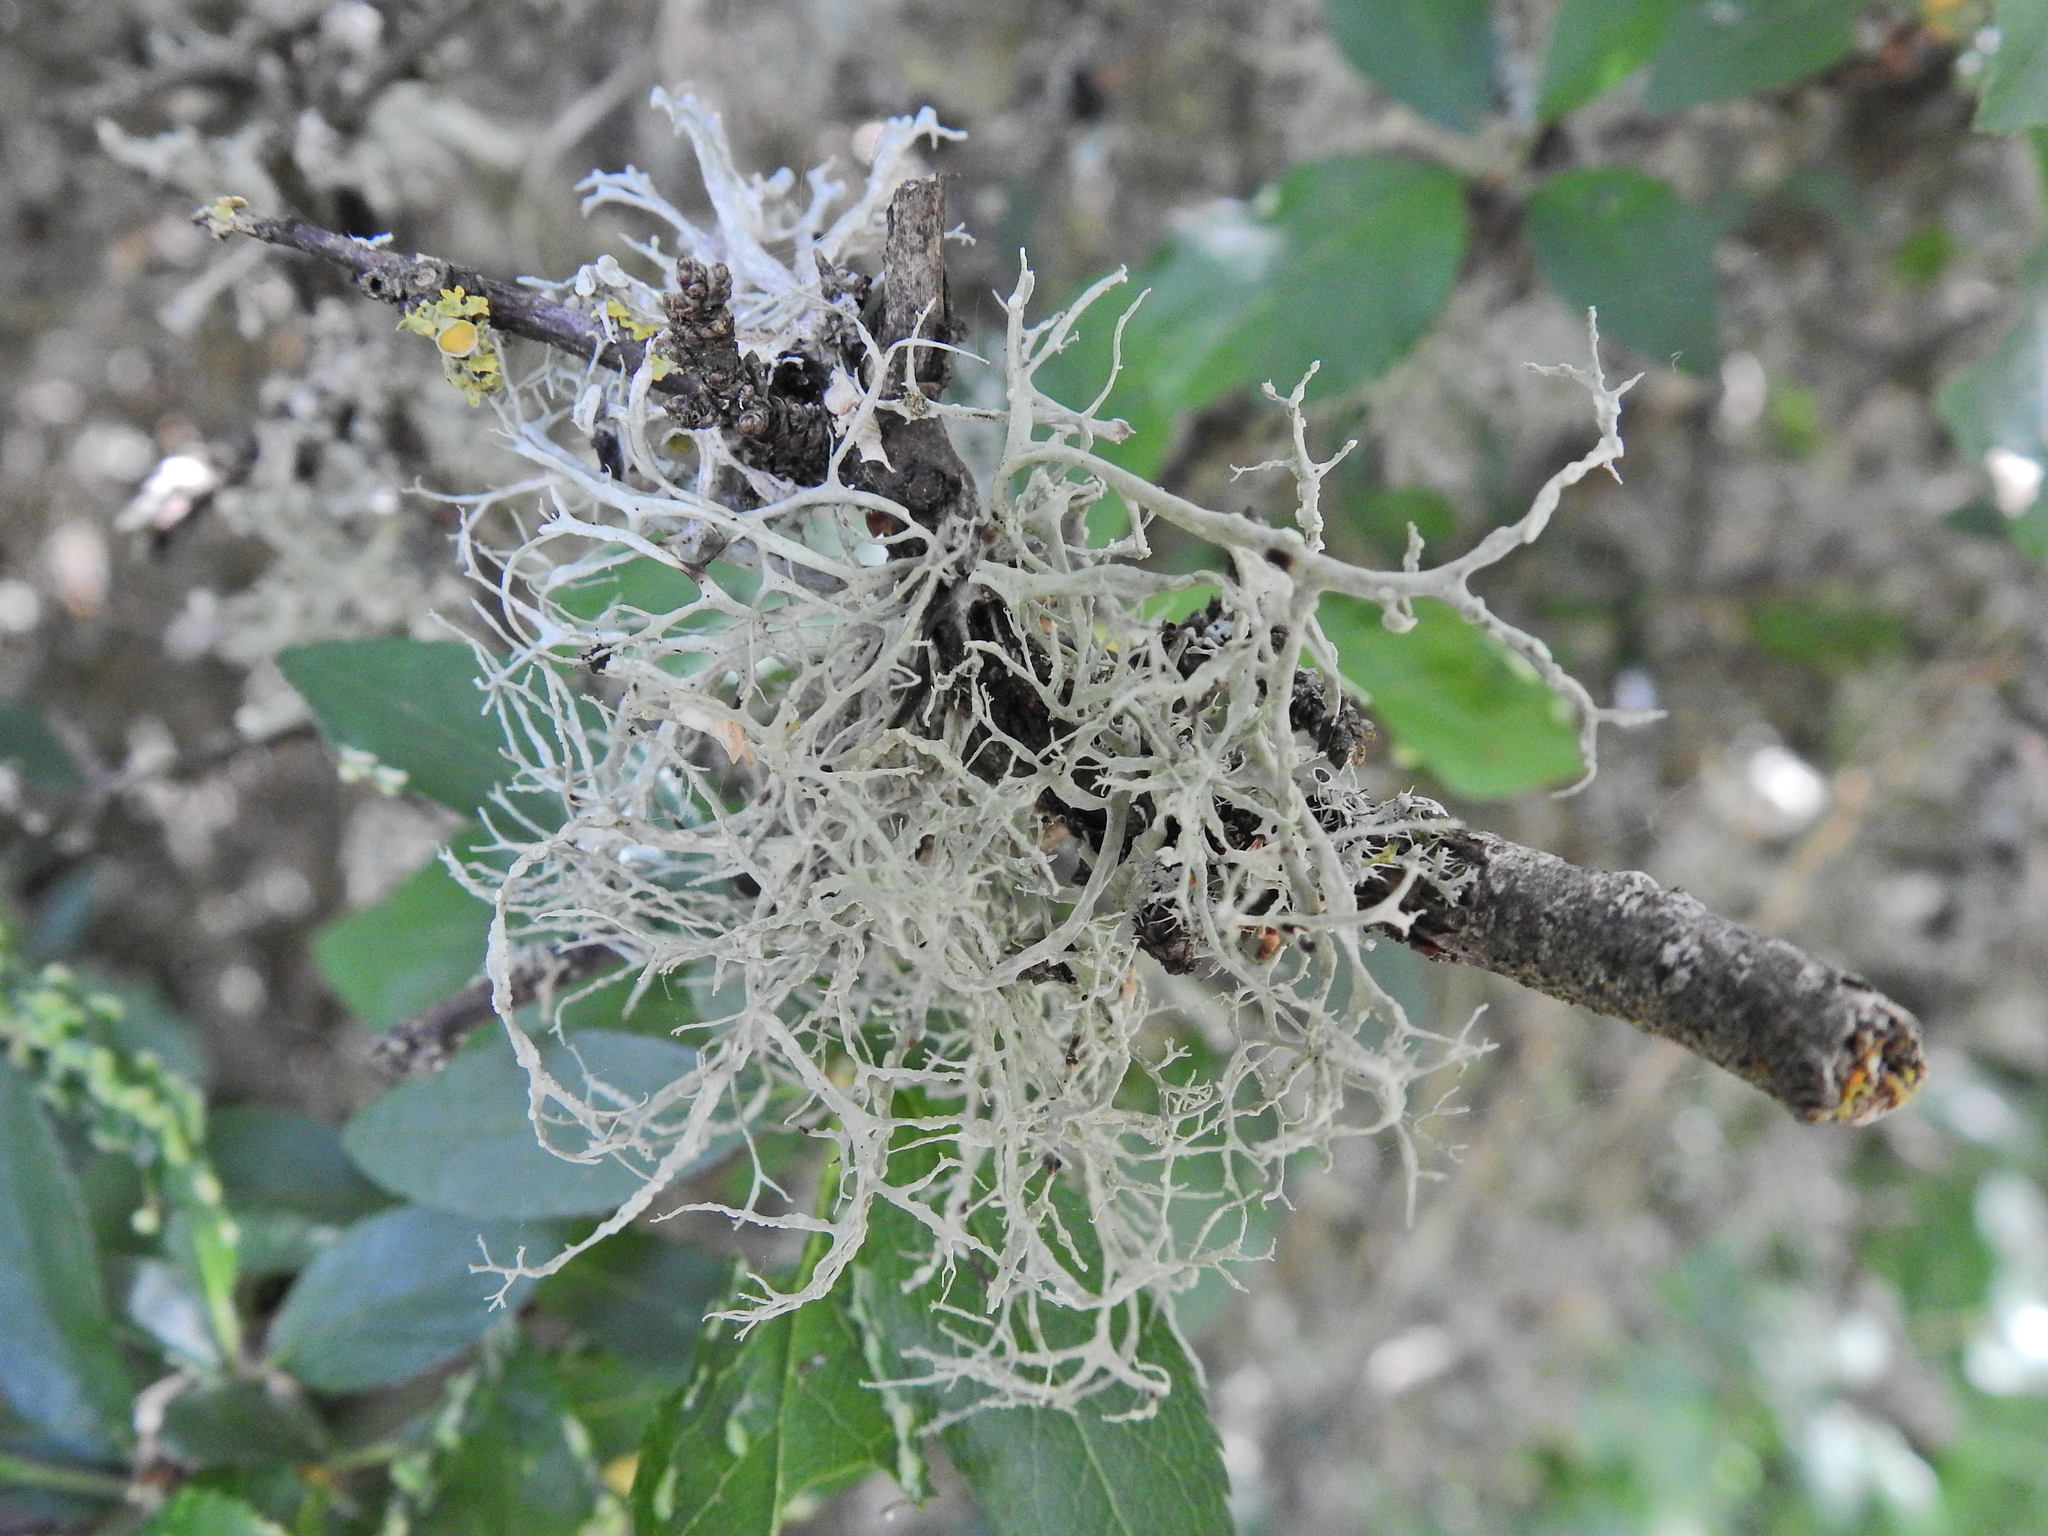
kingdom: Fungi
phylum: Ascomycota
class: Lecanoromycetes
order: Lecanorales
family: Ramalinaceae
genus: Ramalina
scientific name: Ramalina farinacea
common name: Farinose cartilage lichen
